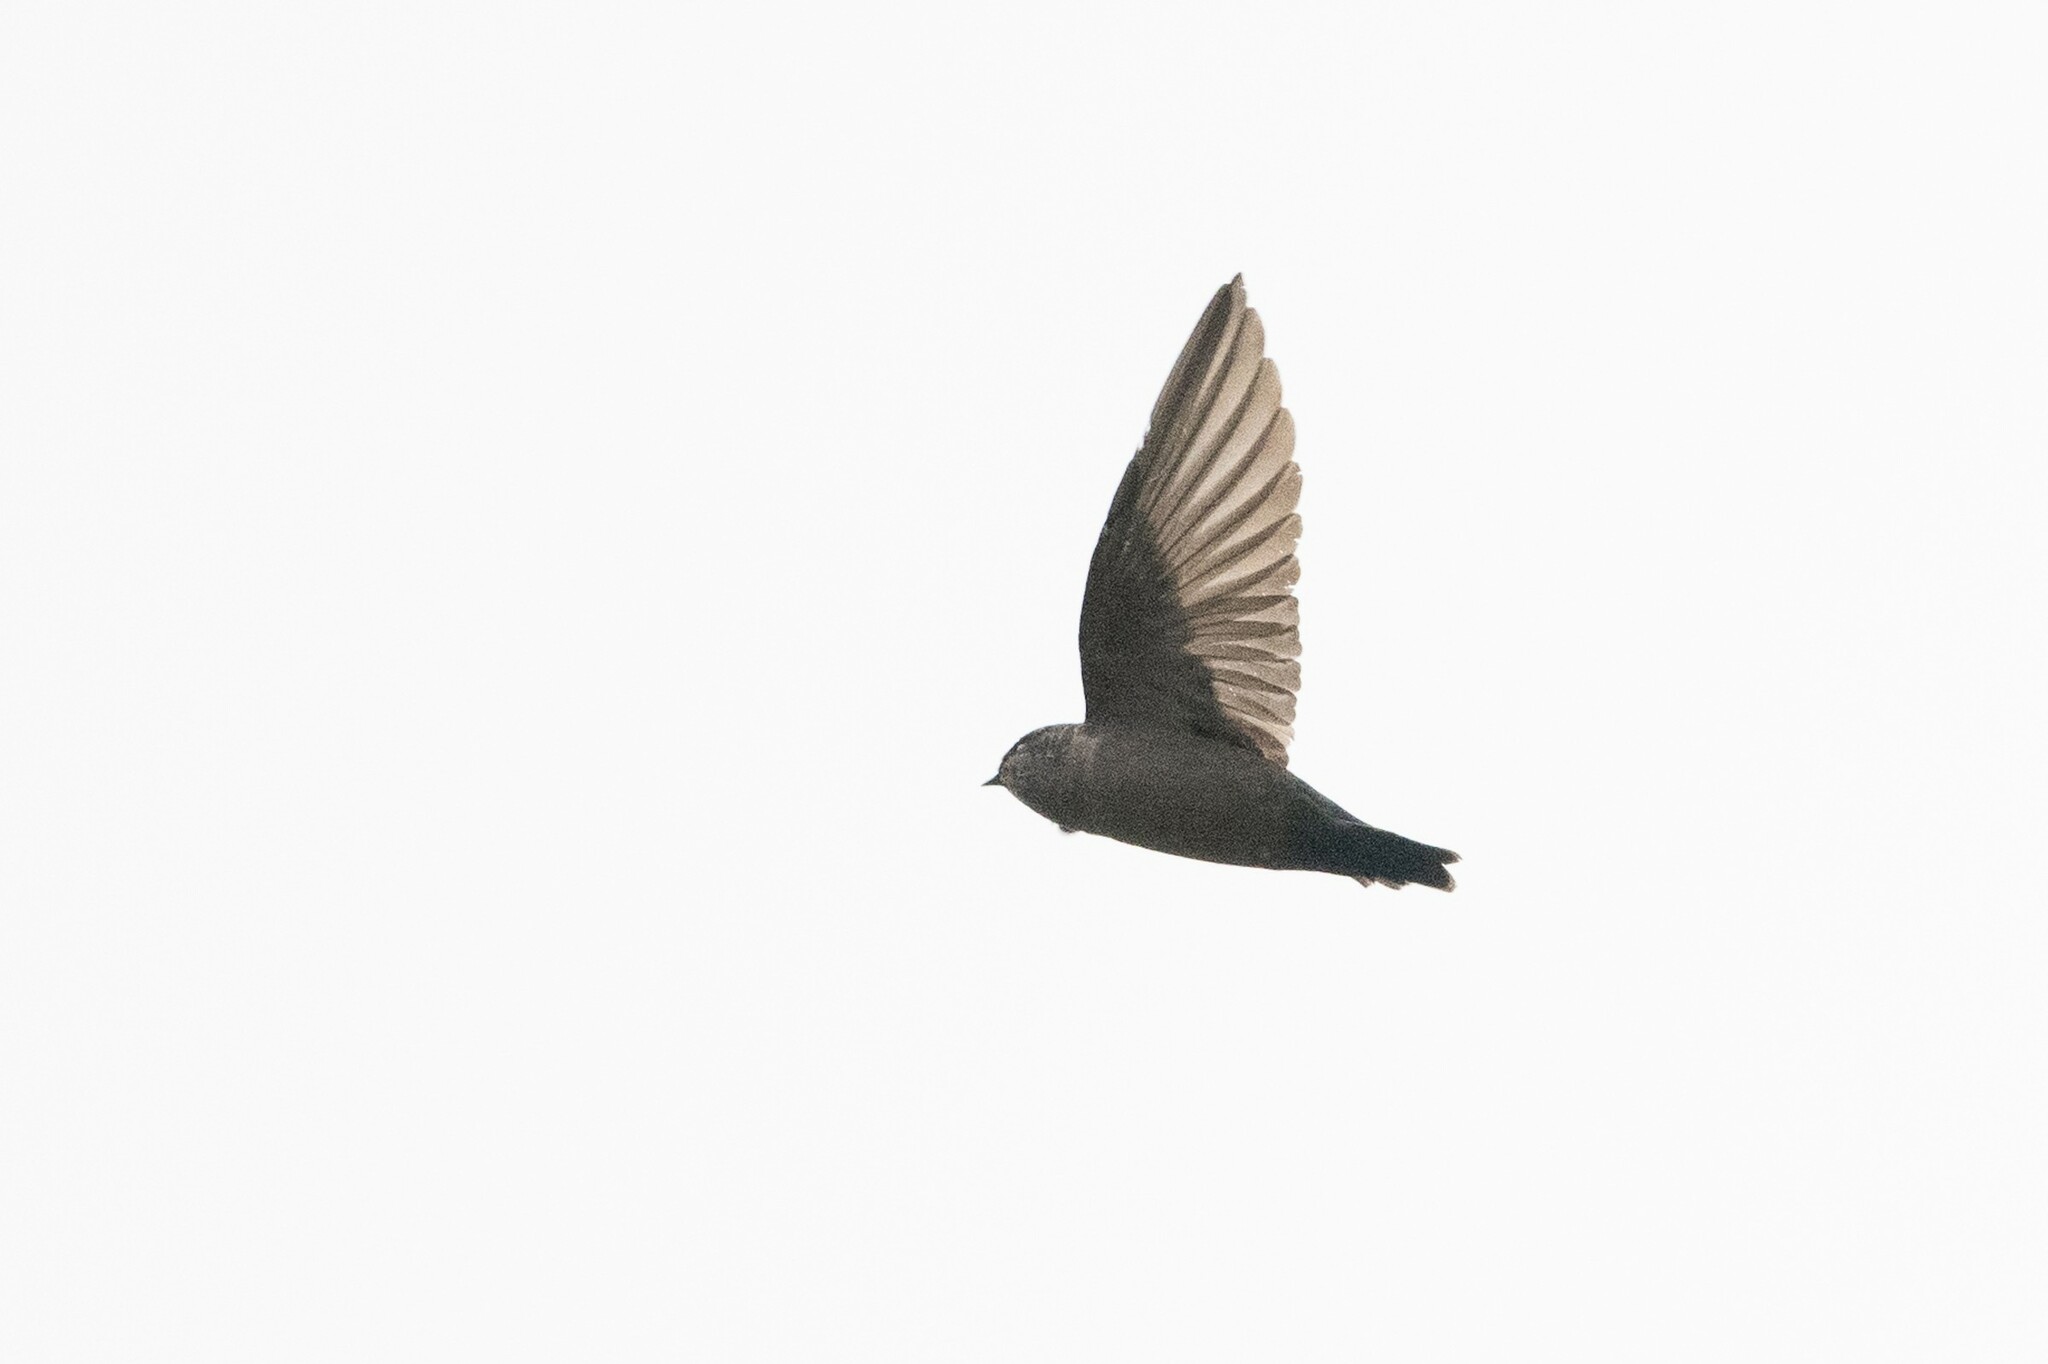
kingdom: Animalia
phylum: Chordata
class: Aves
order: Passeriformes
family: Hirundinidae
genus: Notiochelidon
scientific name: Notiochelidon murina
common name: Brown-bellied swallow
